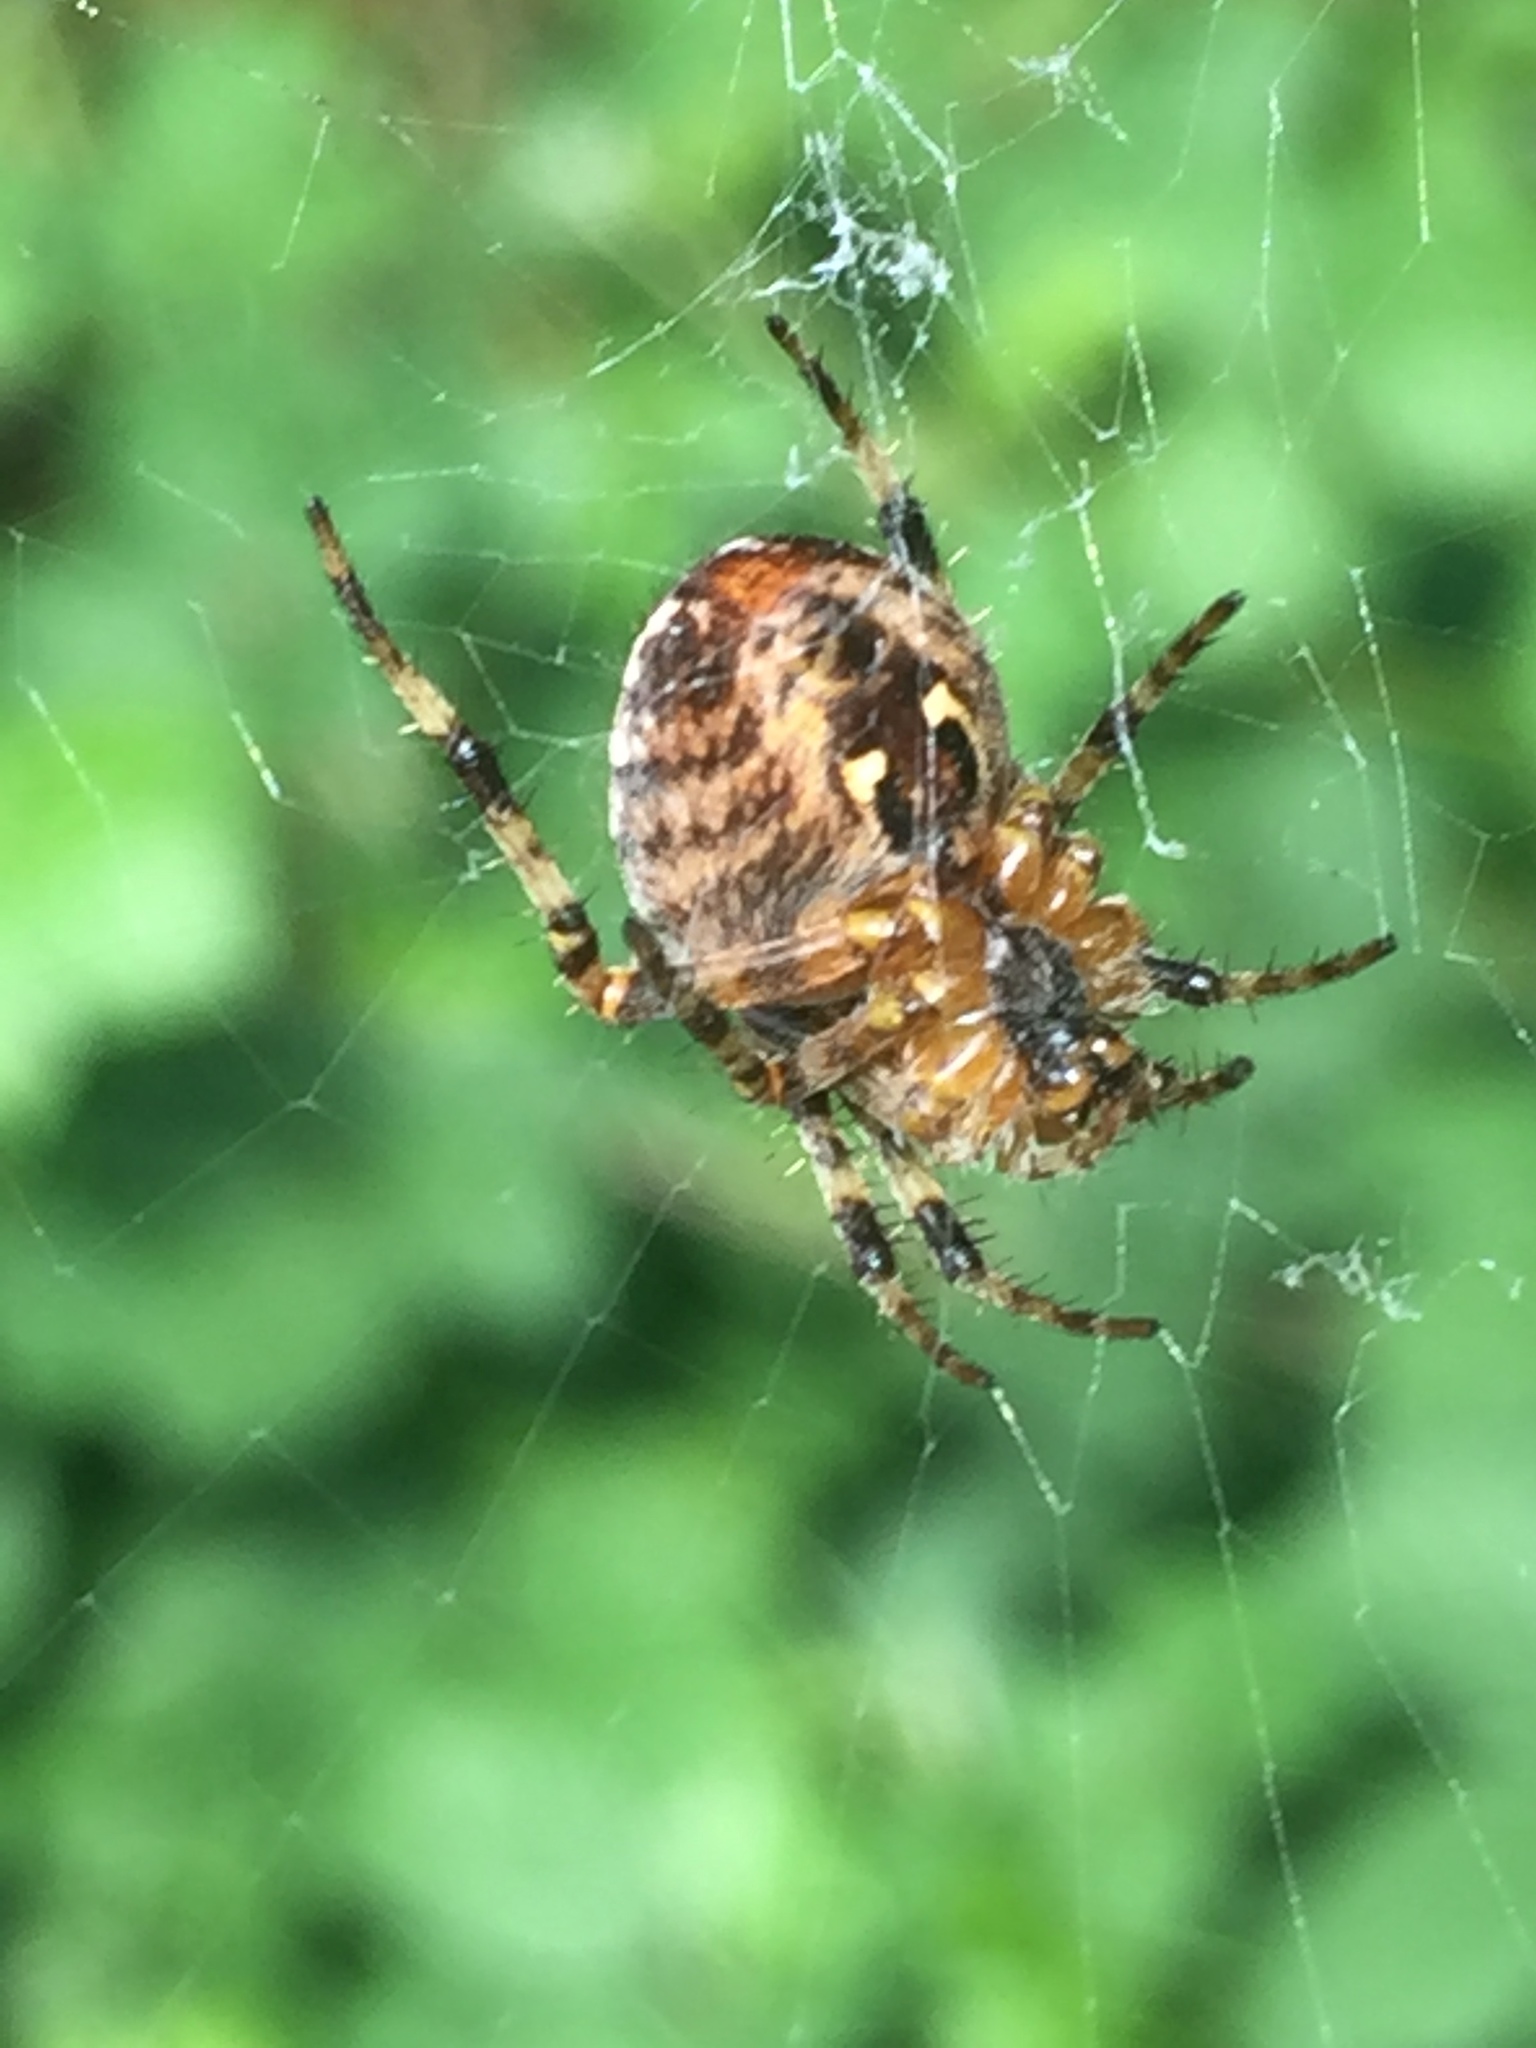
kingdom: Animalia
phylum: Arthropoda
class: Arachnida
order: Araneae
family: Araneidae
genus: Araneus
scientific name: Araneus diadematus
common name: Cross orbweaver
